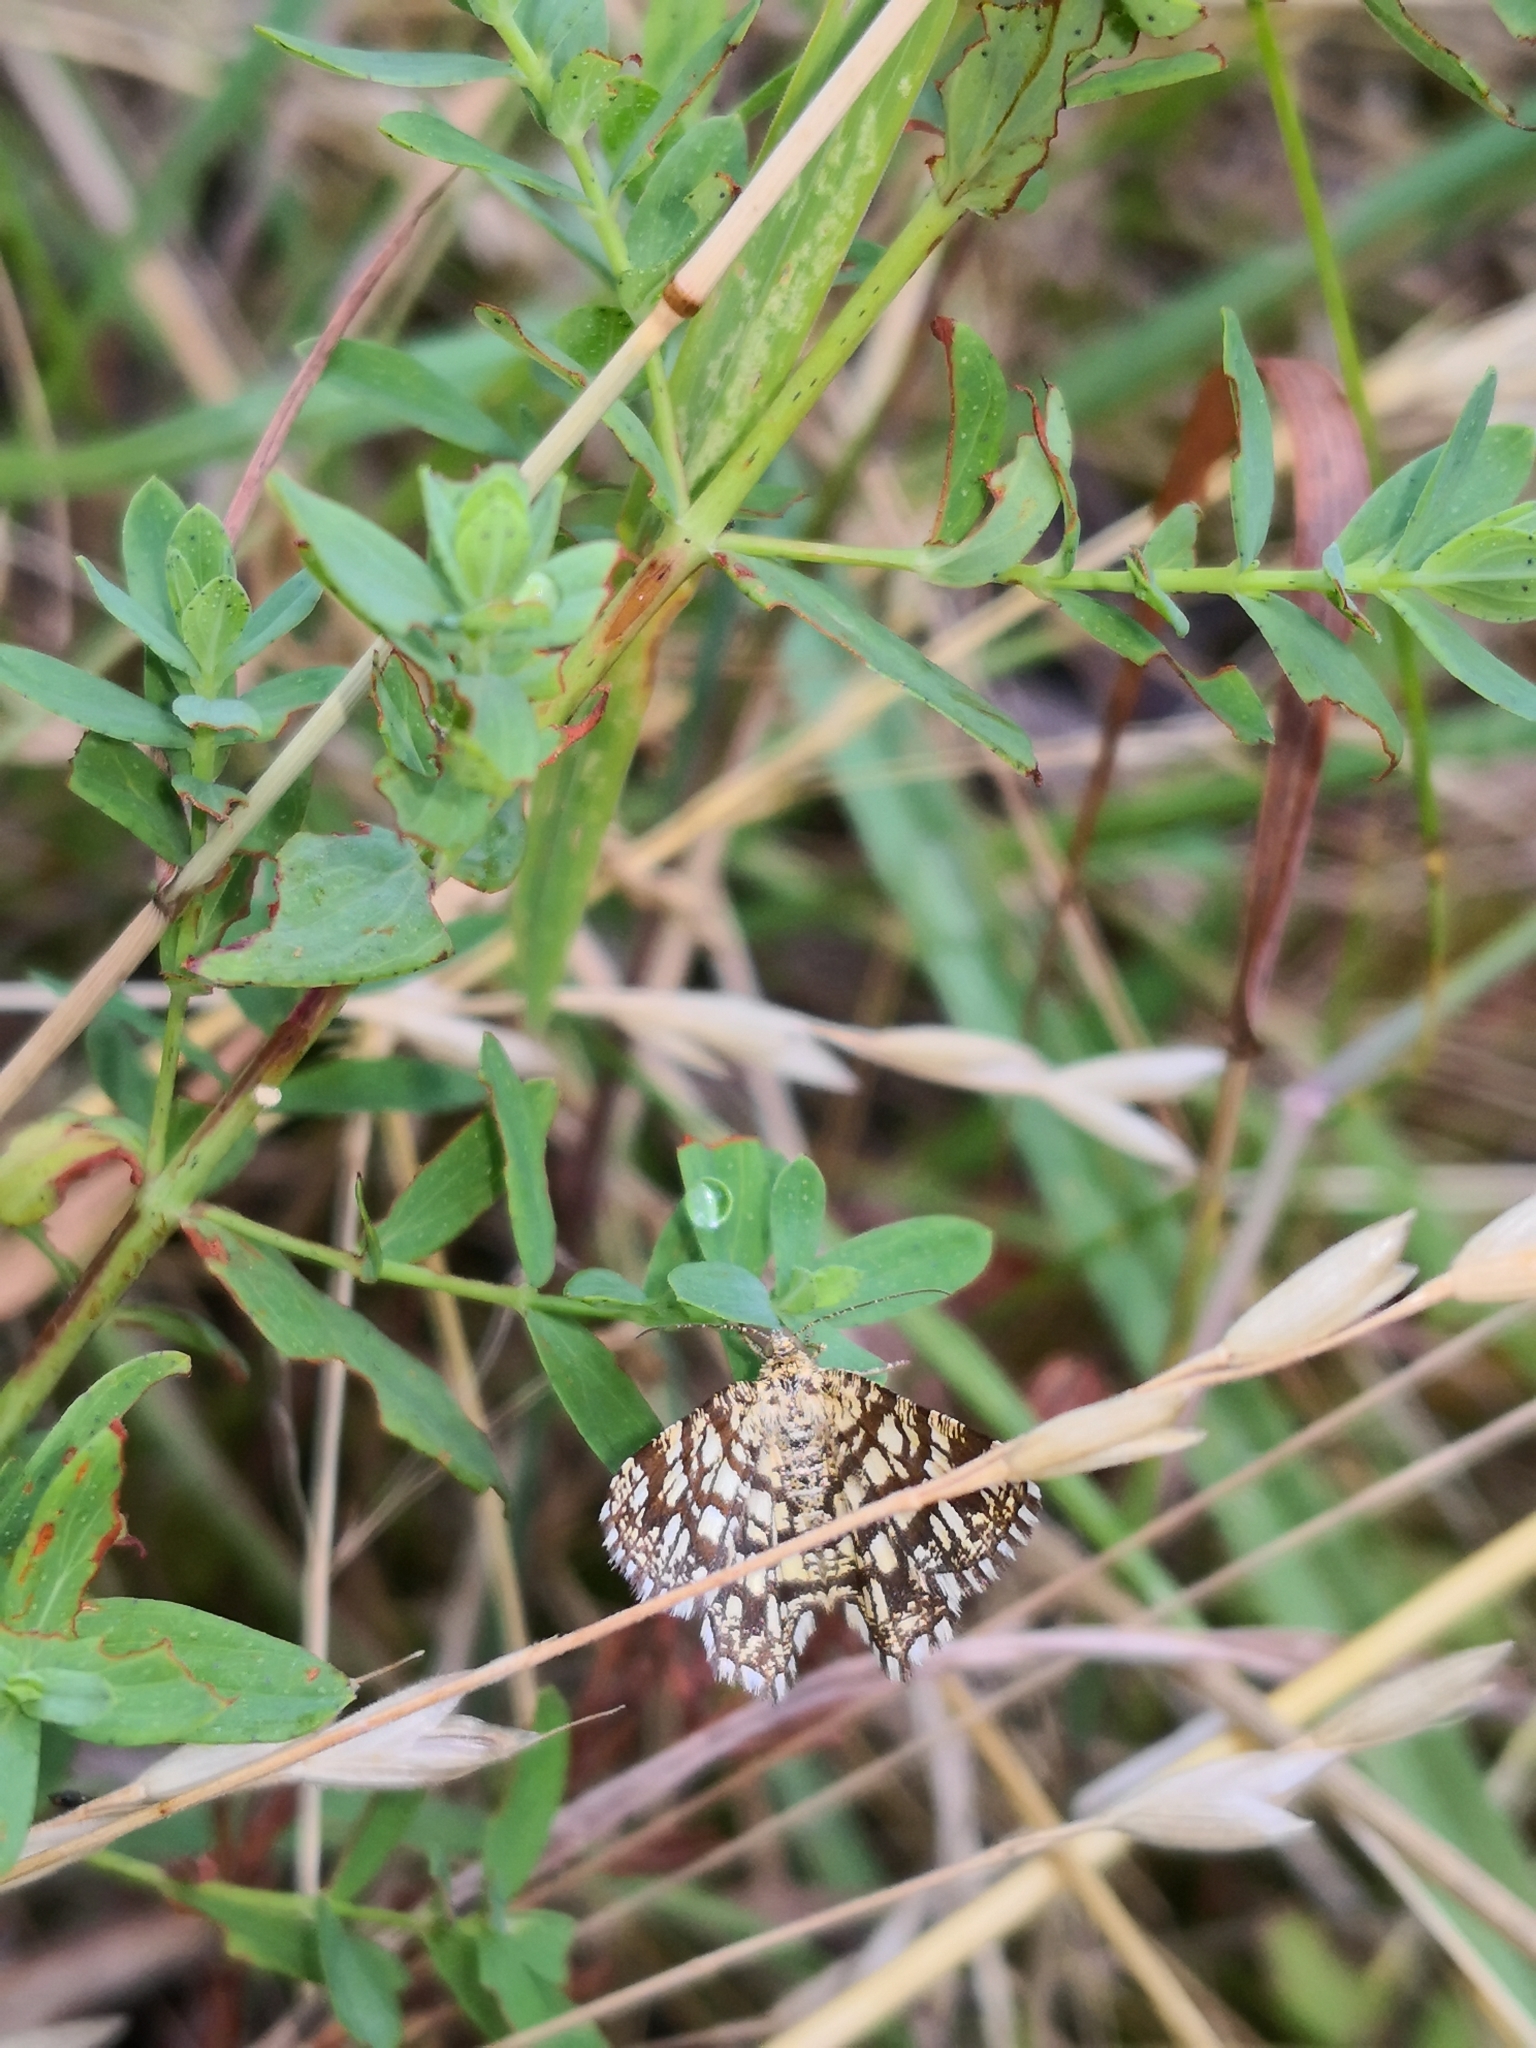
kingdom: Animalia
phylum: Arthropoda
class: Insecta
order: Lepidoptera
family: Geometridae
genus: Chiasmia
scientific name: Chiasmia clathrata
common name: Latticed heath
